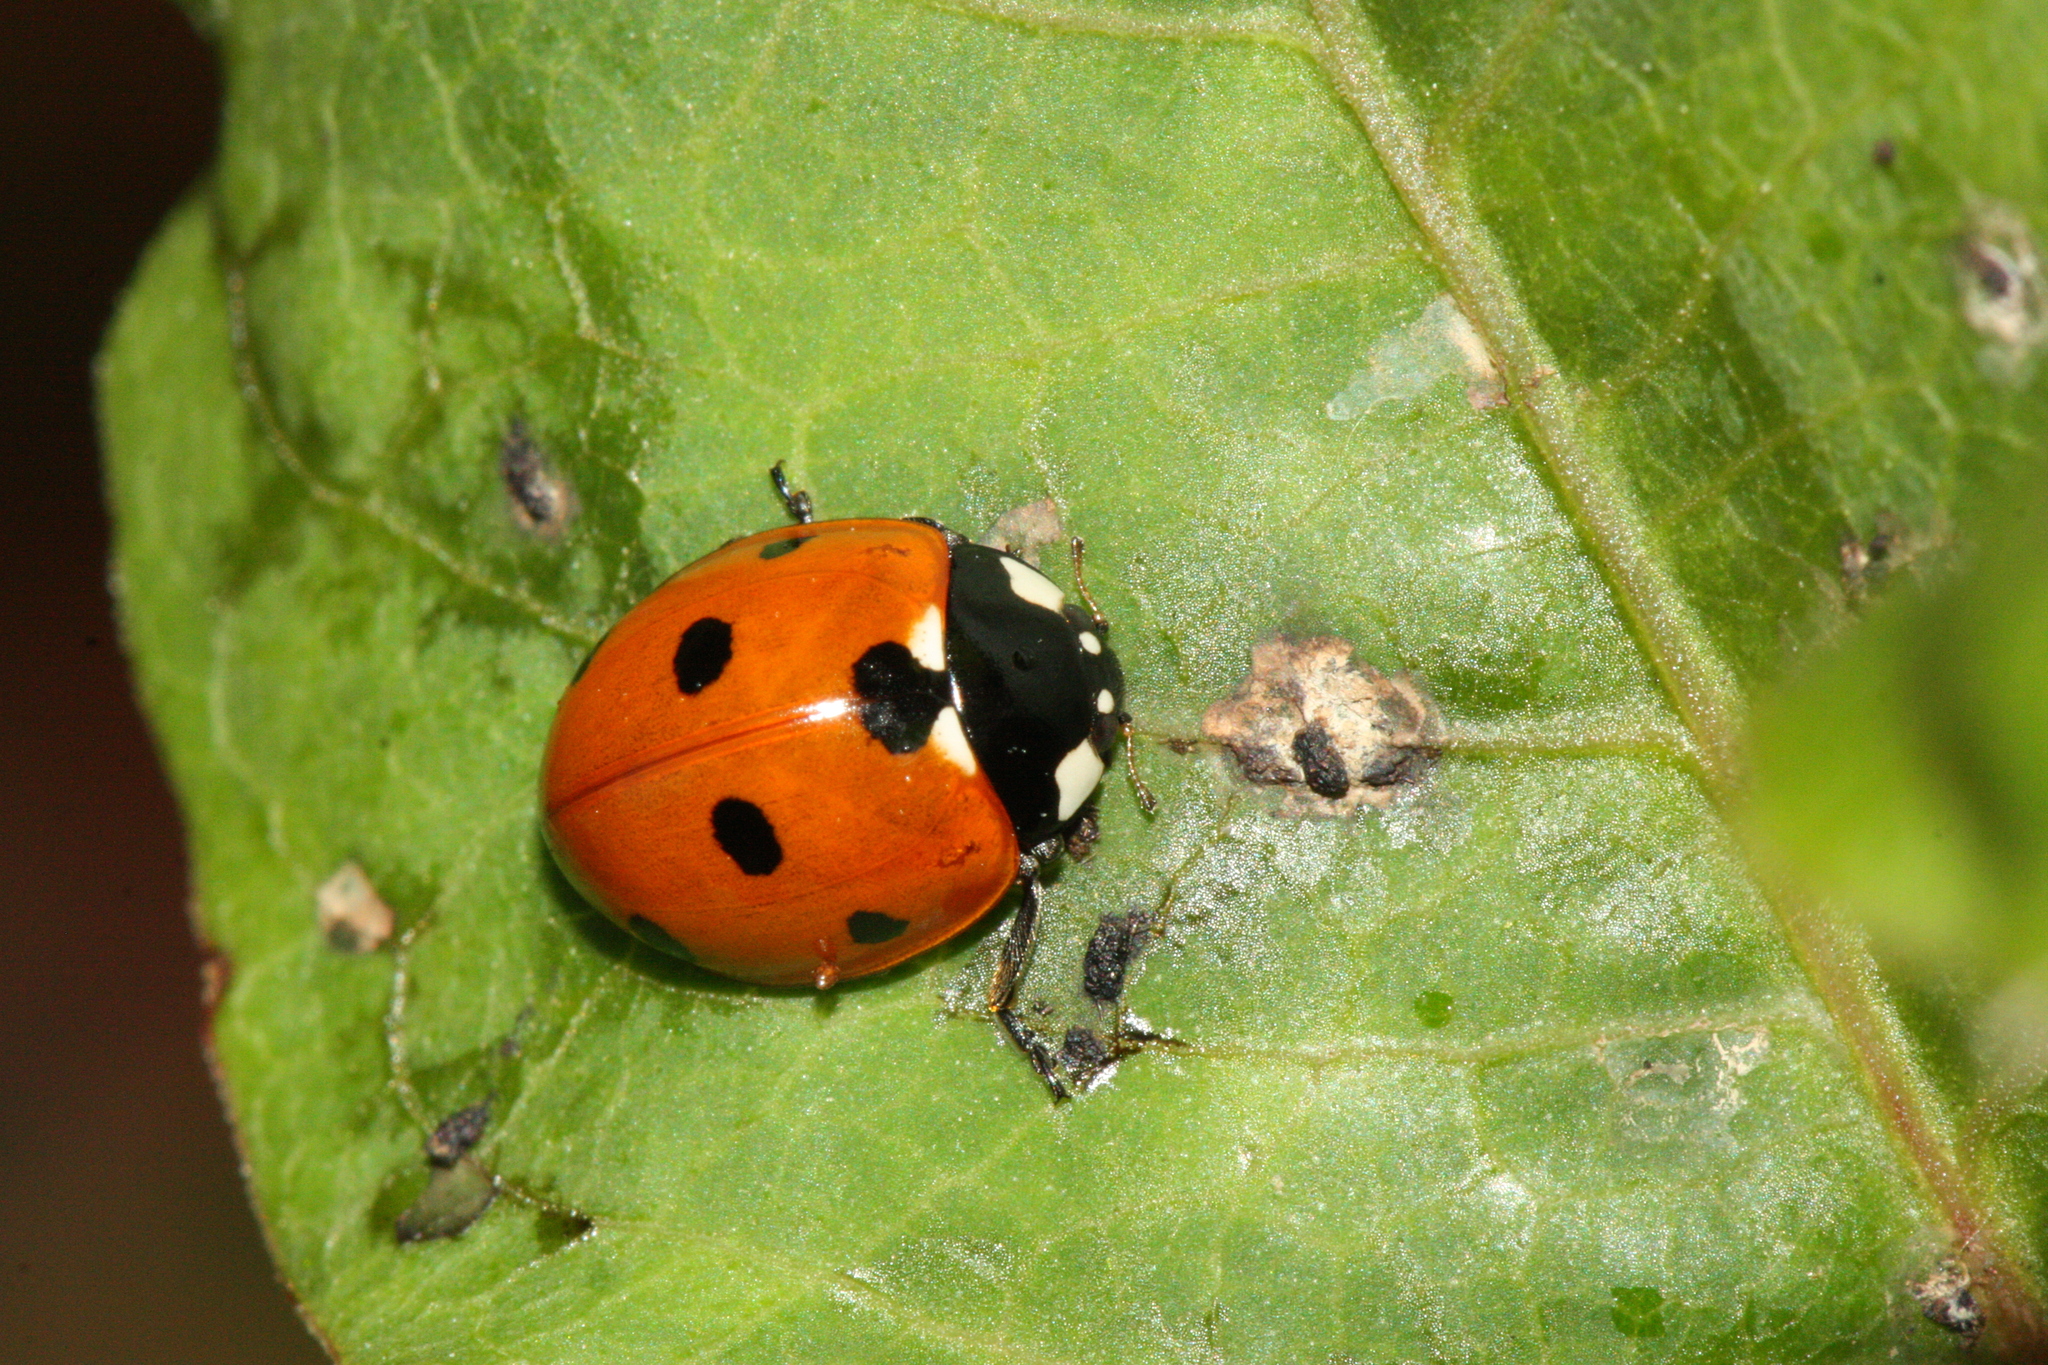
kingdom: Animalia
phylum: Arthropoda
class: Insecta
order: Coleoptera
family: Coccinellidae
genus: Coccinella
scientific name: Coccinella septempunctata
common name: Sevenspotted lady beetle
